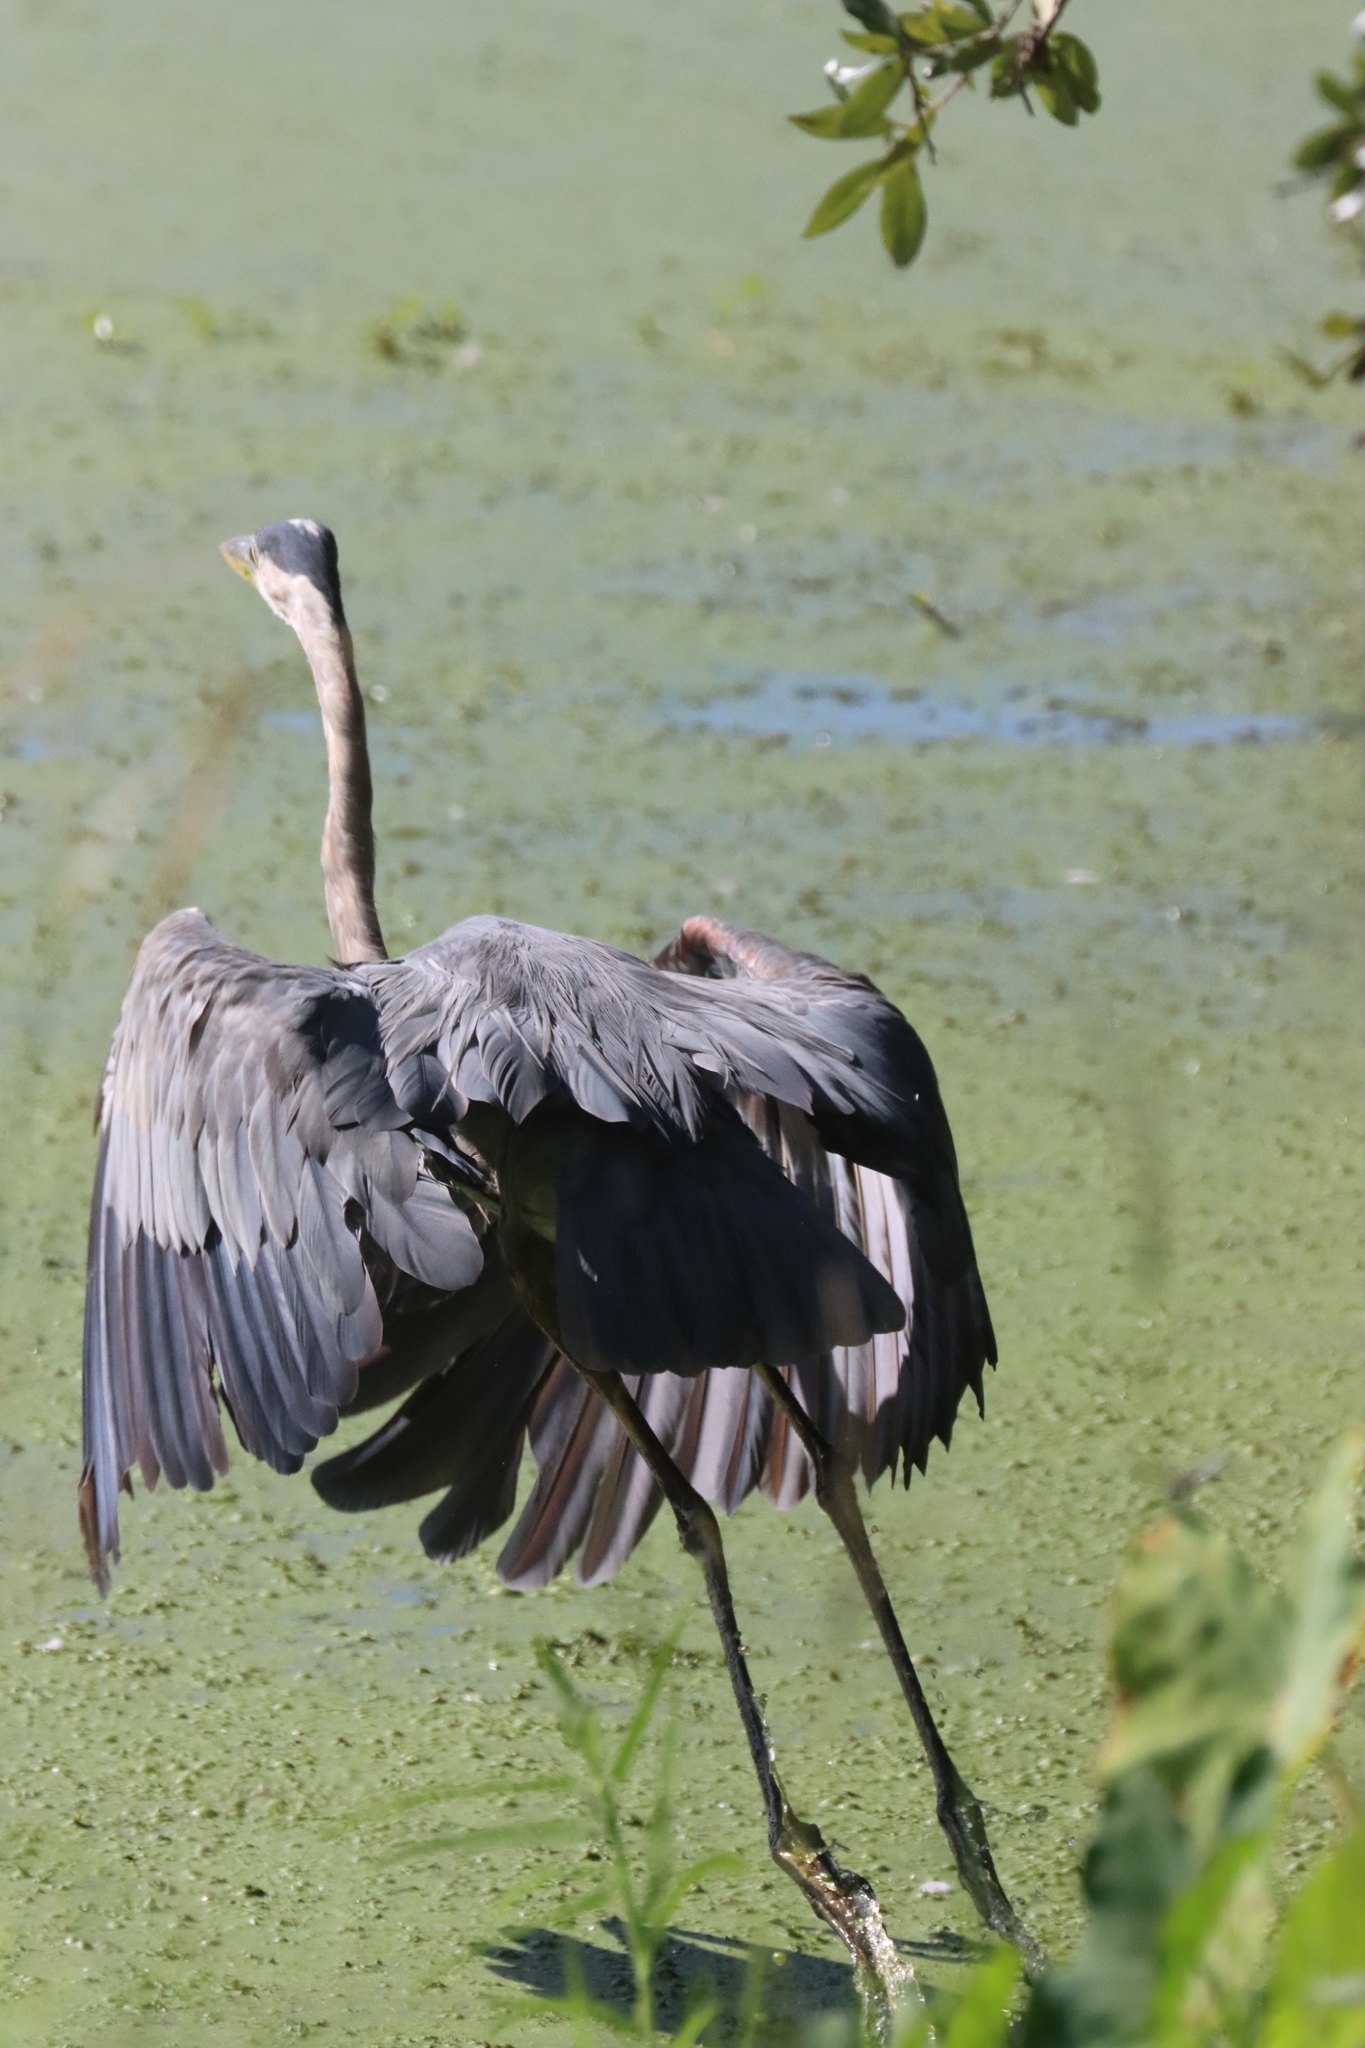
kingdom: Animalia
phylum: Chordata
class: Aves
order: Pelecaniformes
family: Ardeidae
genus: Ardea
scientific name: Ardea herodias
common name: Great blue heron
